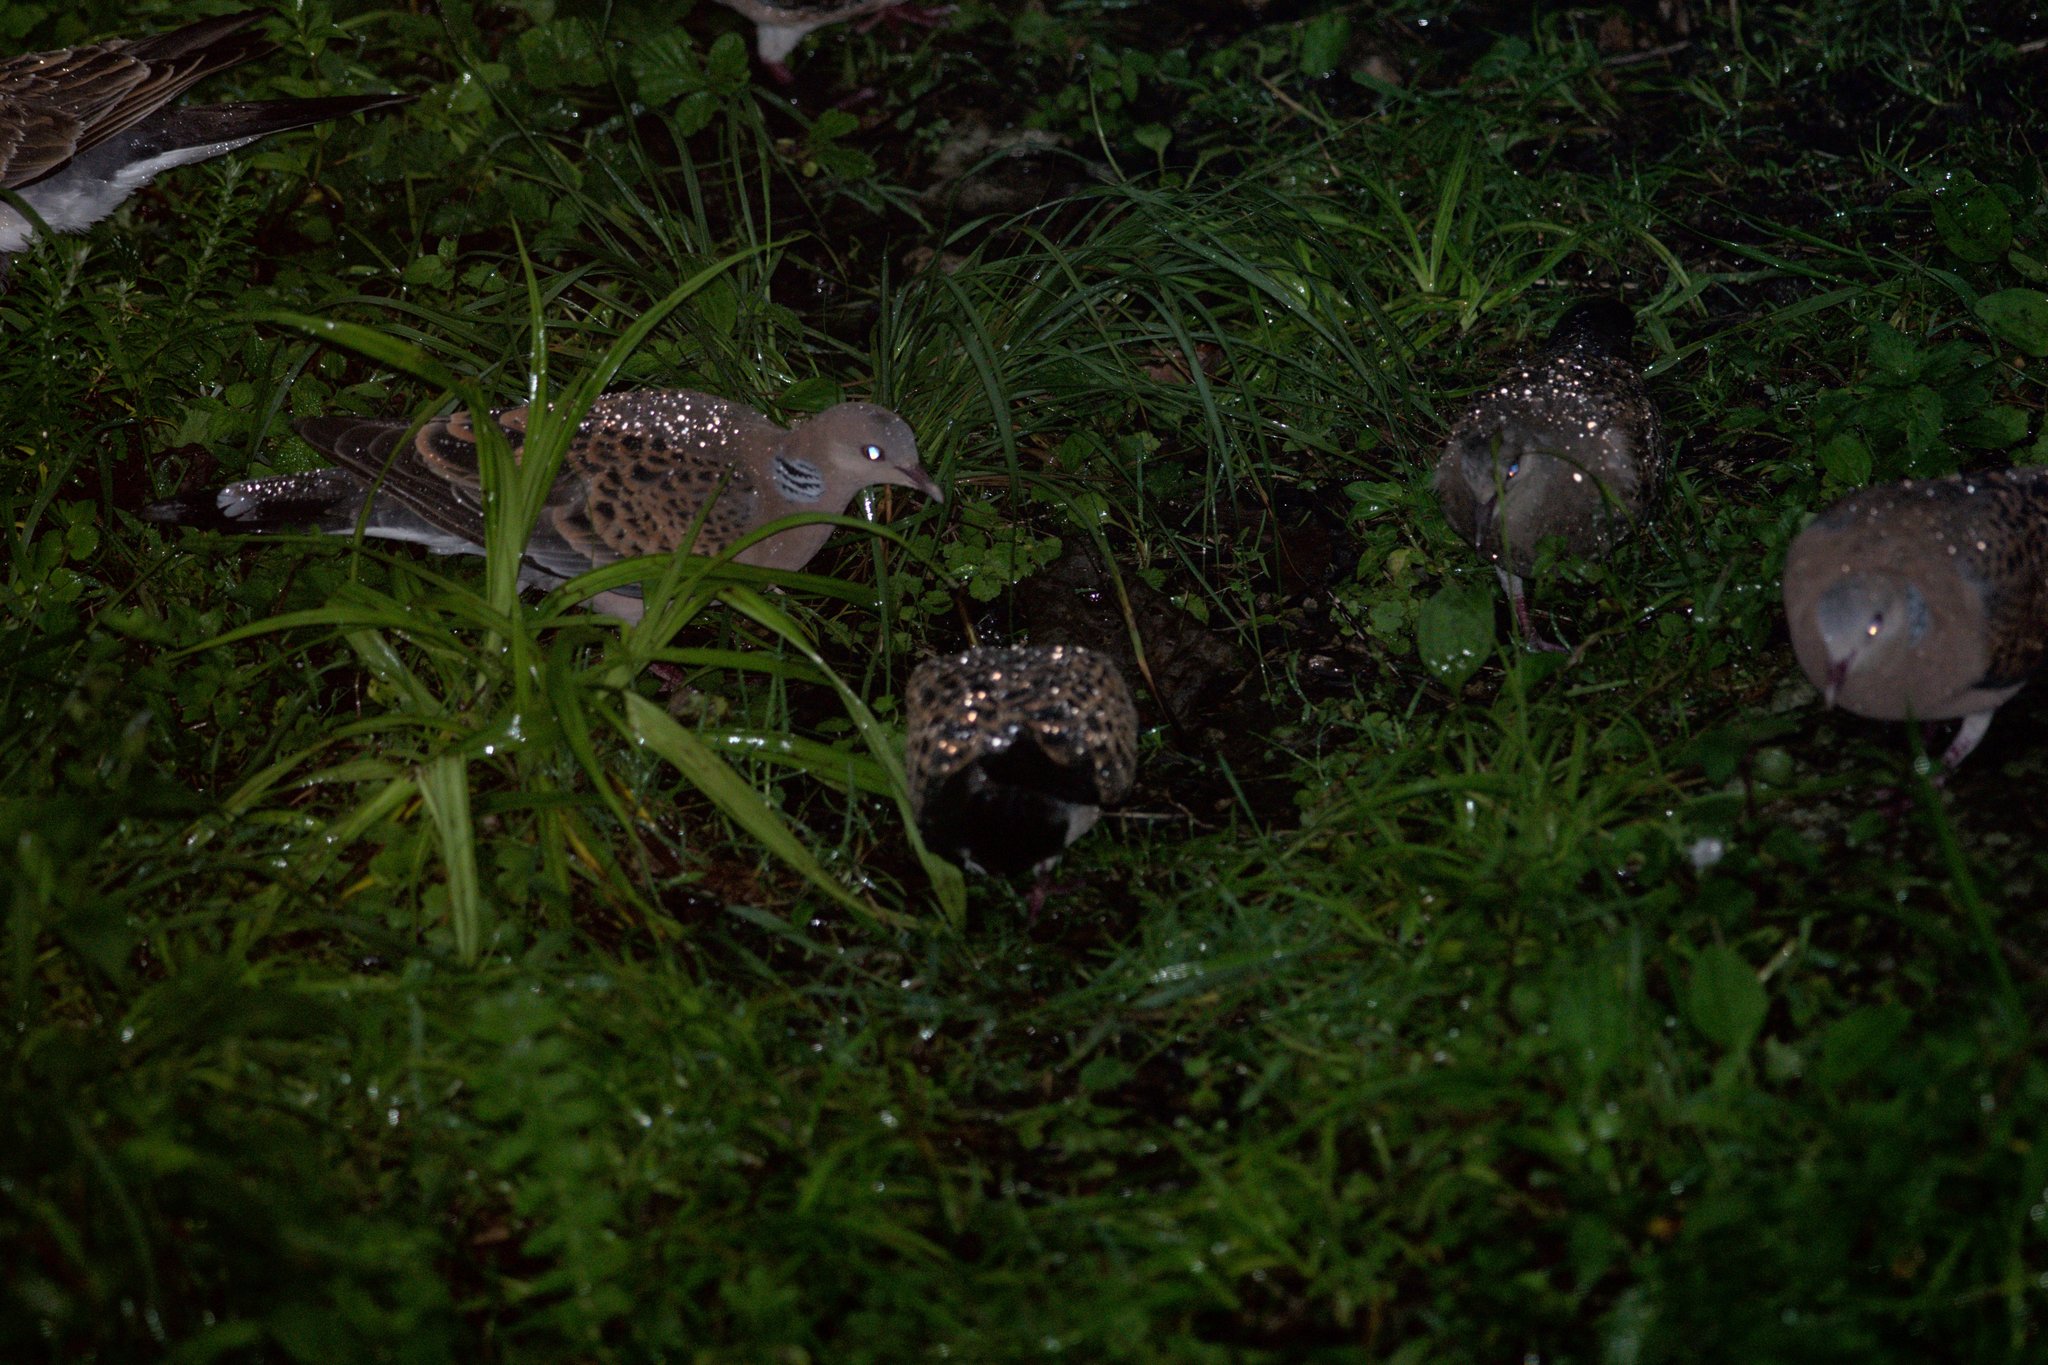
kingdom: Animalia
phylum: Chordata
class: Aves
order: Columbiformes
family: Columbidae
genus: Streptopelia
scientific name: Streptopelia orientalis
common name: Oriental turtle dove
